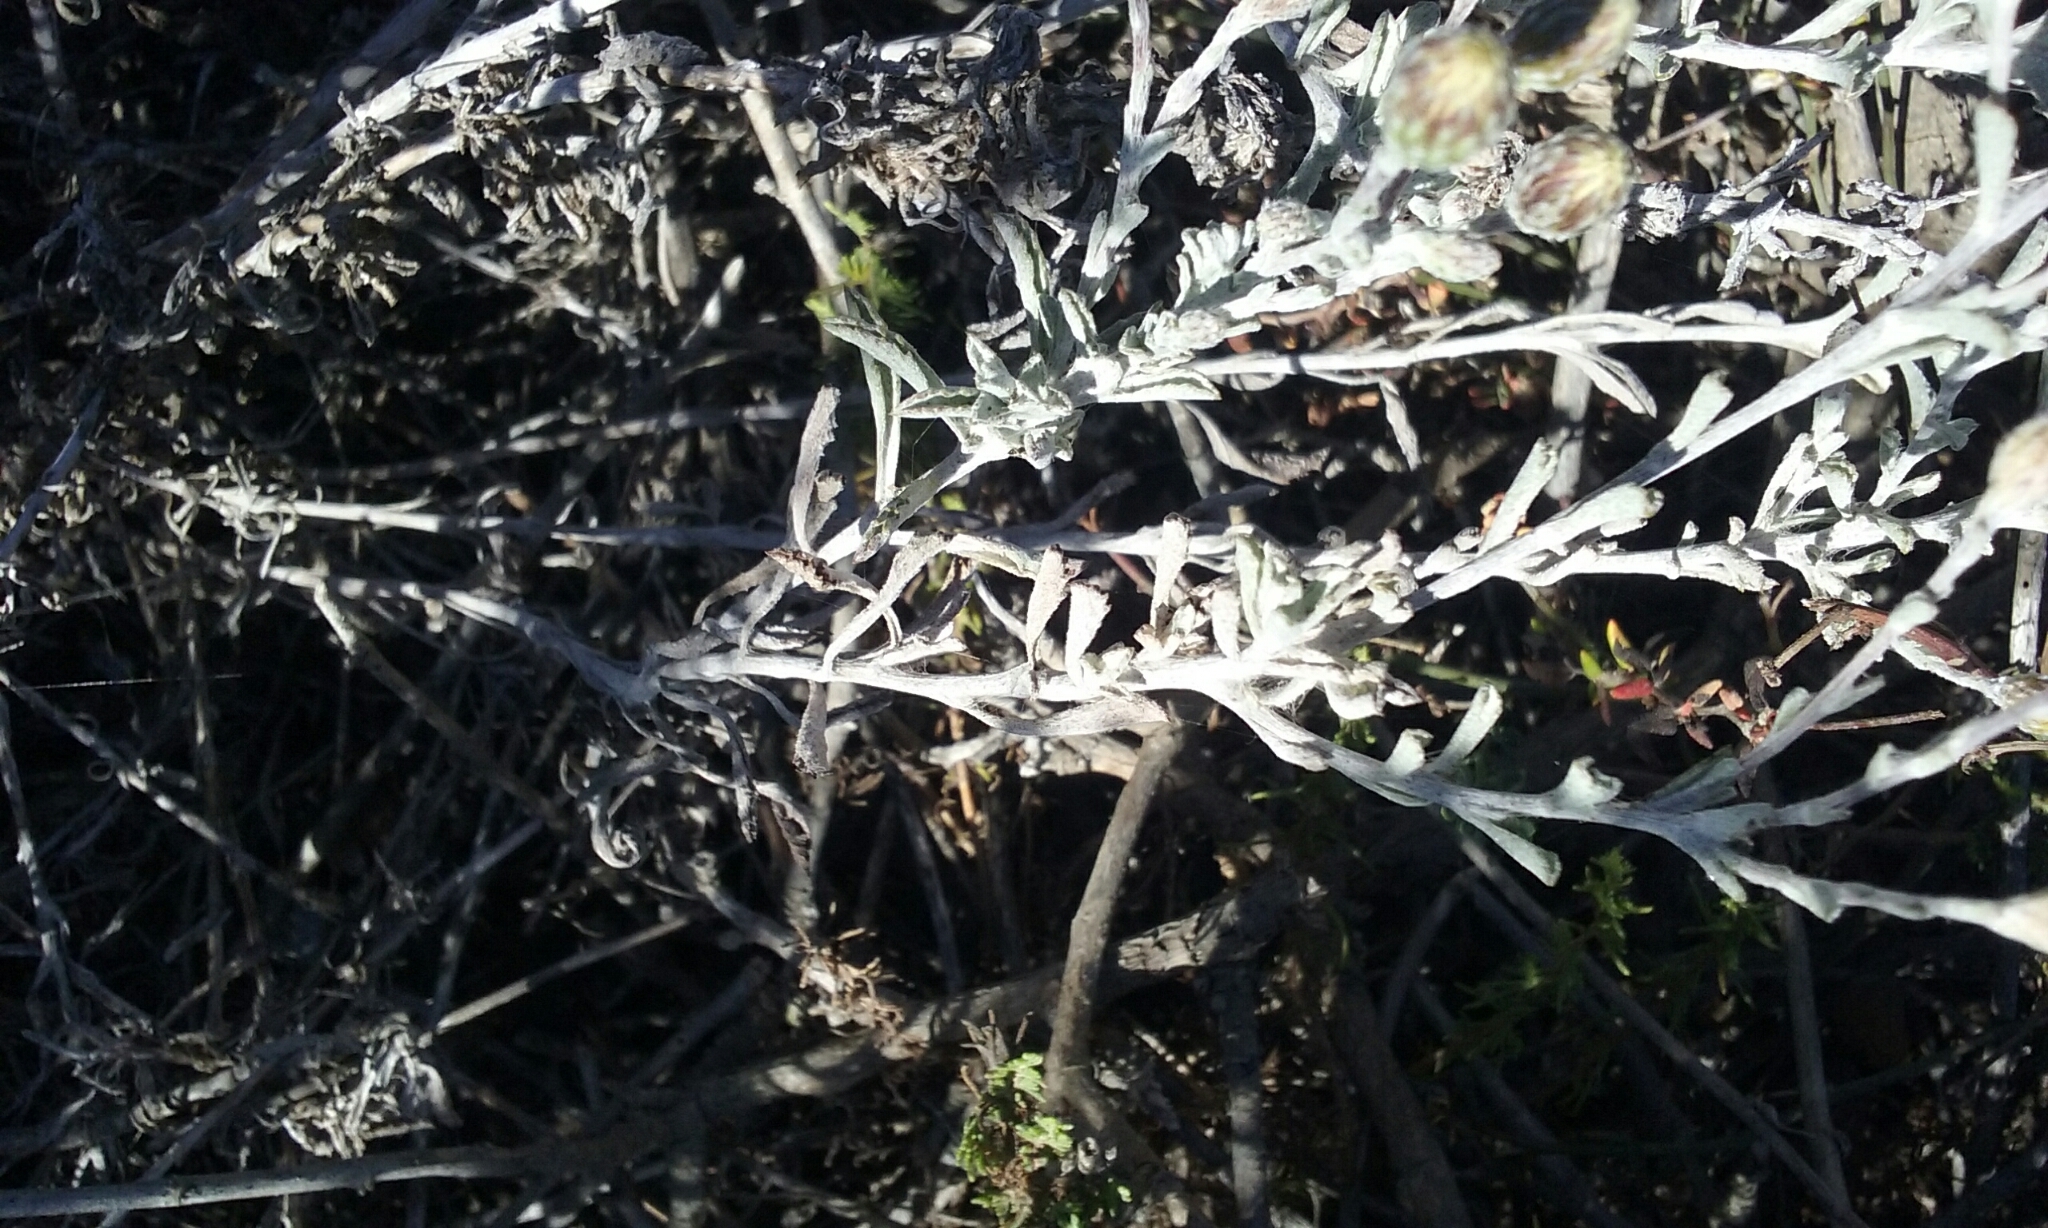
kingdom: Plantae
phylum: Tracheophyta
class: Magnoliopsida
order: Asterales
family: Asteraceae
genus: Corethrogyne
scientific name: Corethrogyne filaginifolia
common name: Sand-aster
